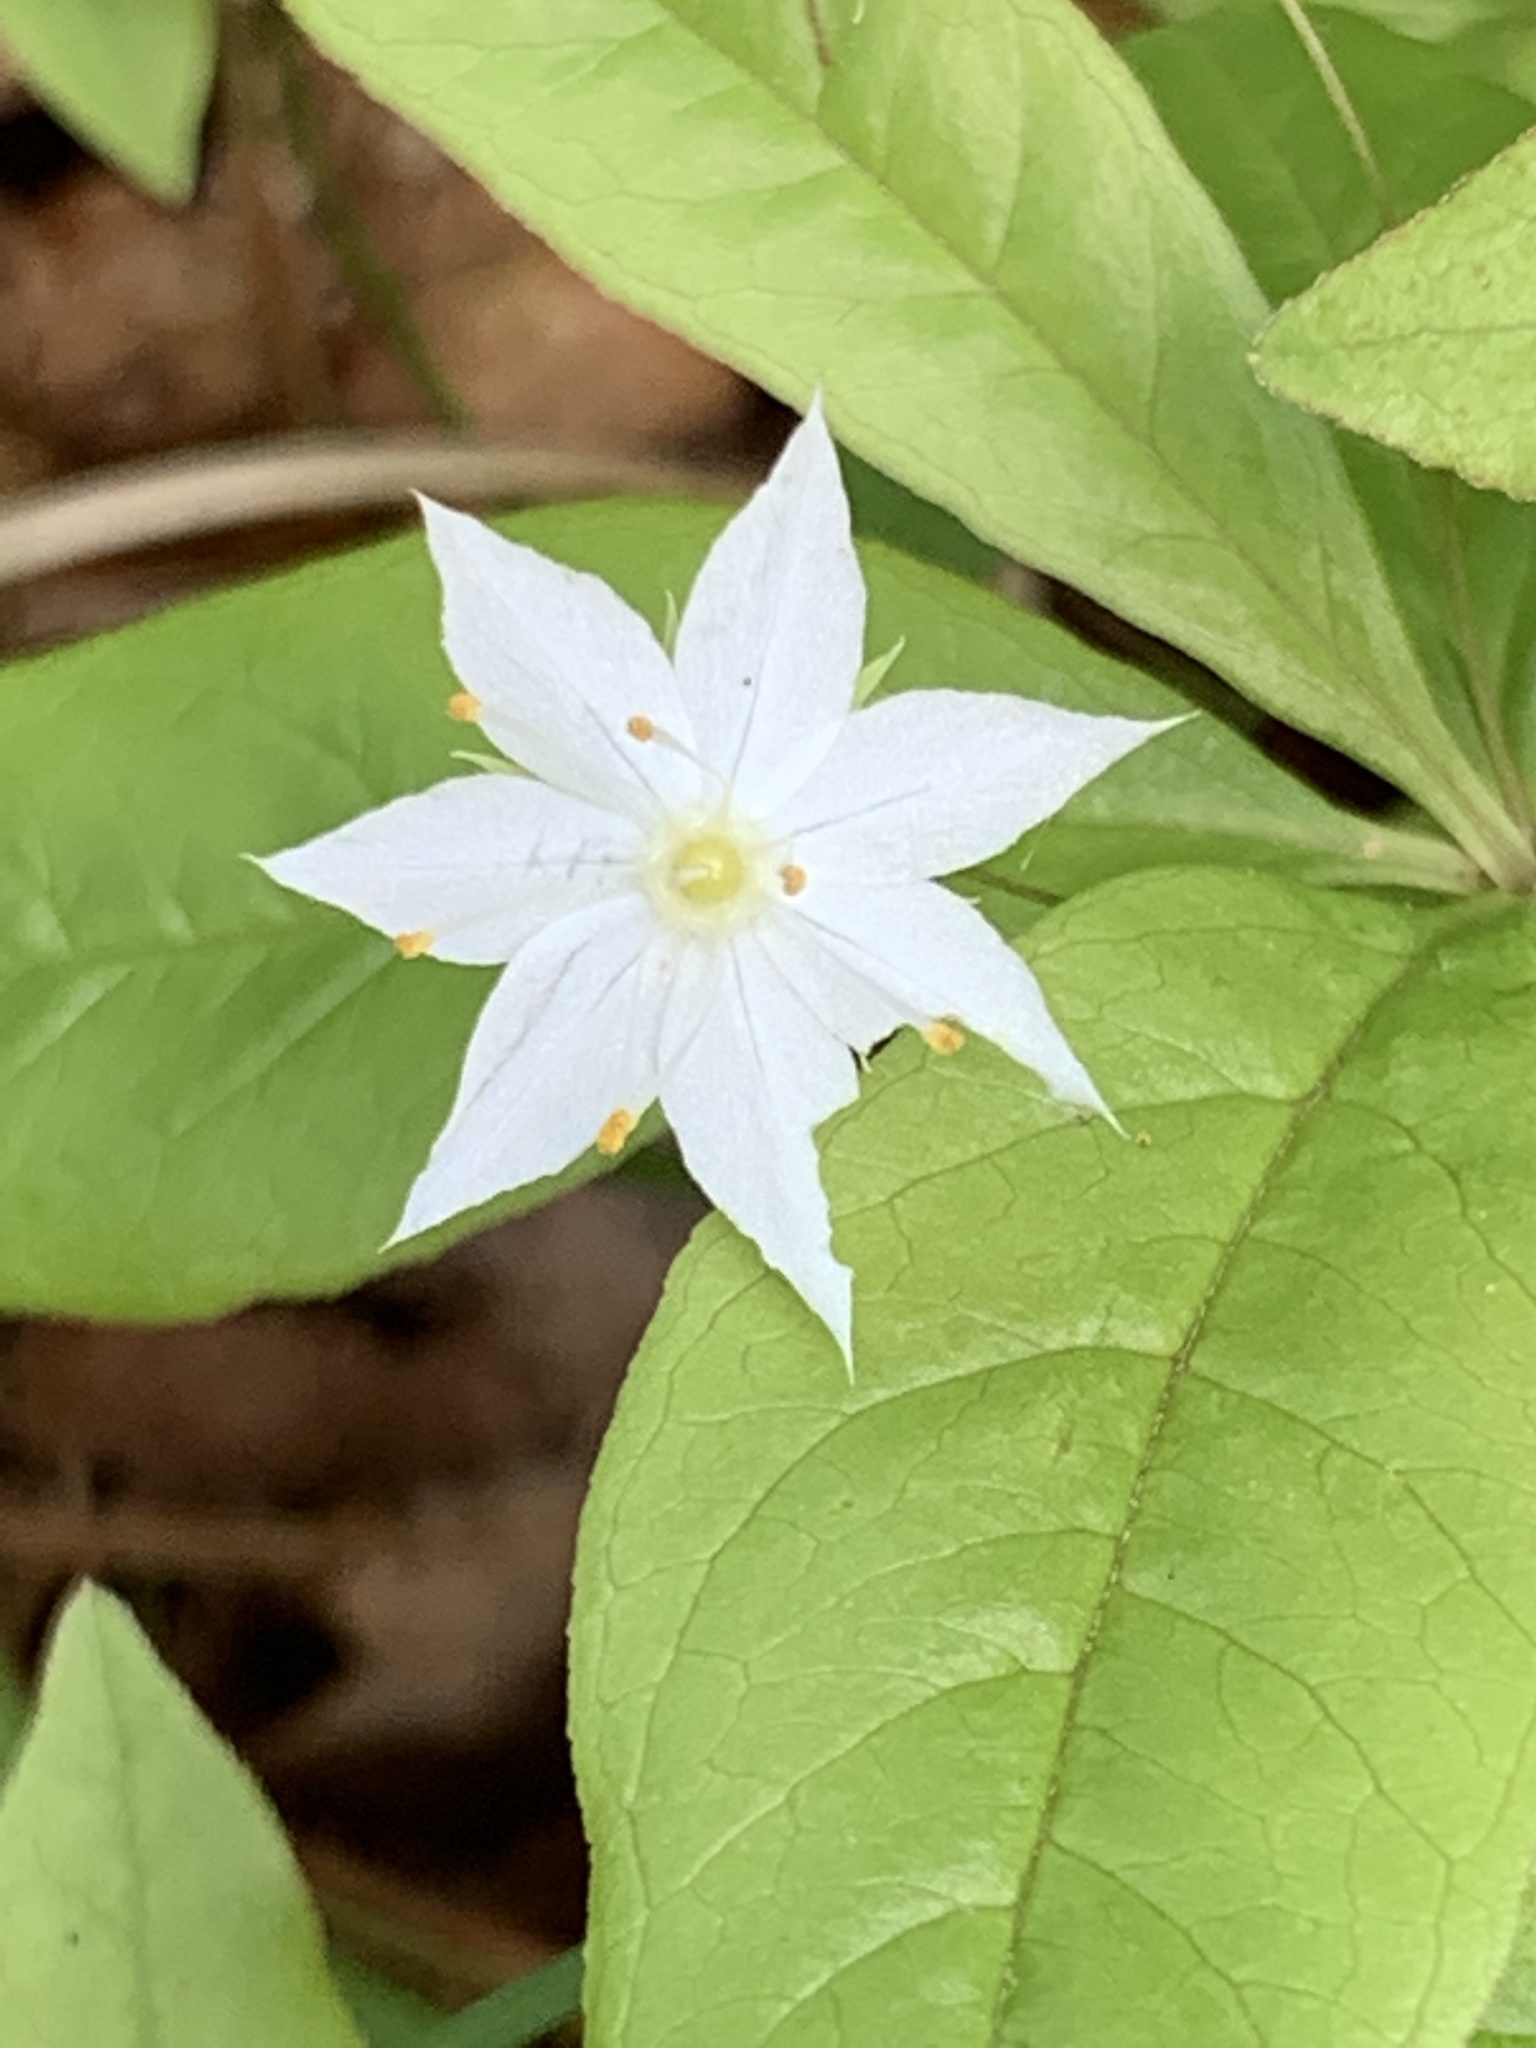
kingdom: Plantae
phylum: Tracheophyta
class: Magnoliopsida
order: Ericales
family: Primulaceae
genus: Lysimachia
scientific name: Lysimachia borealis
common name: American starflower
